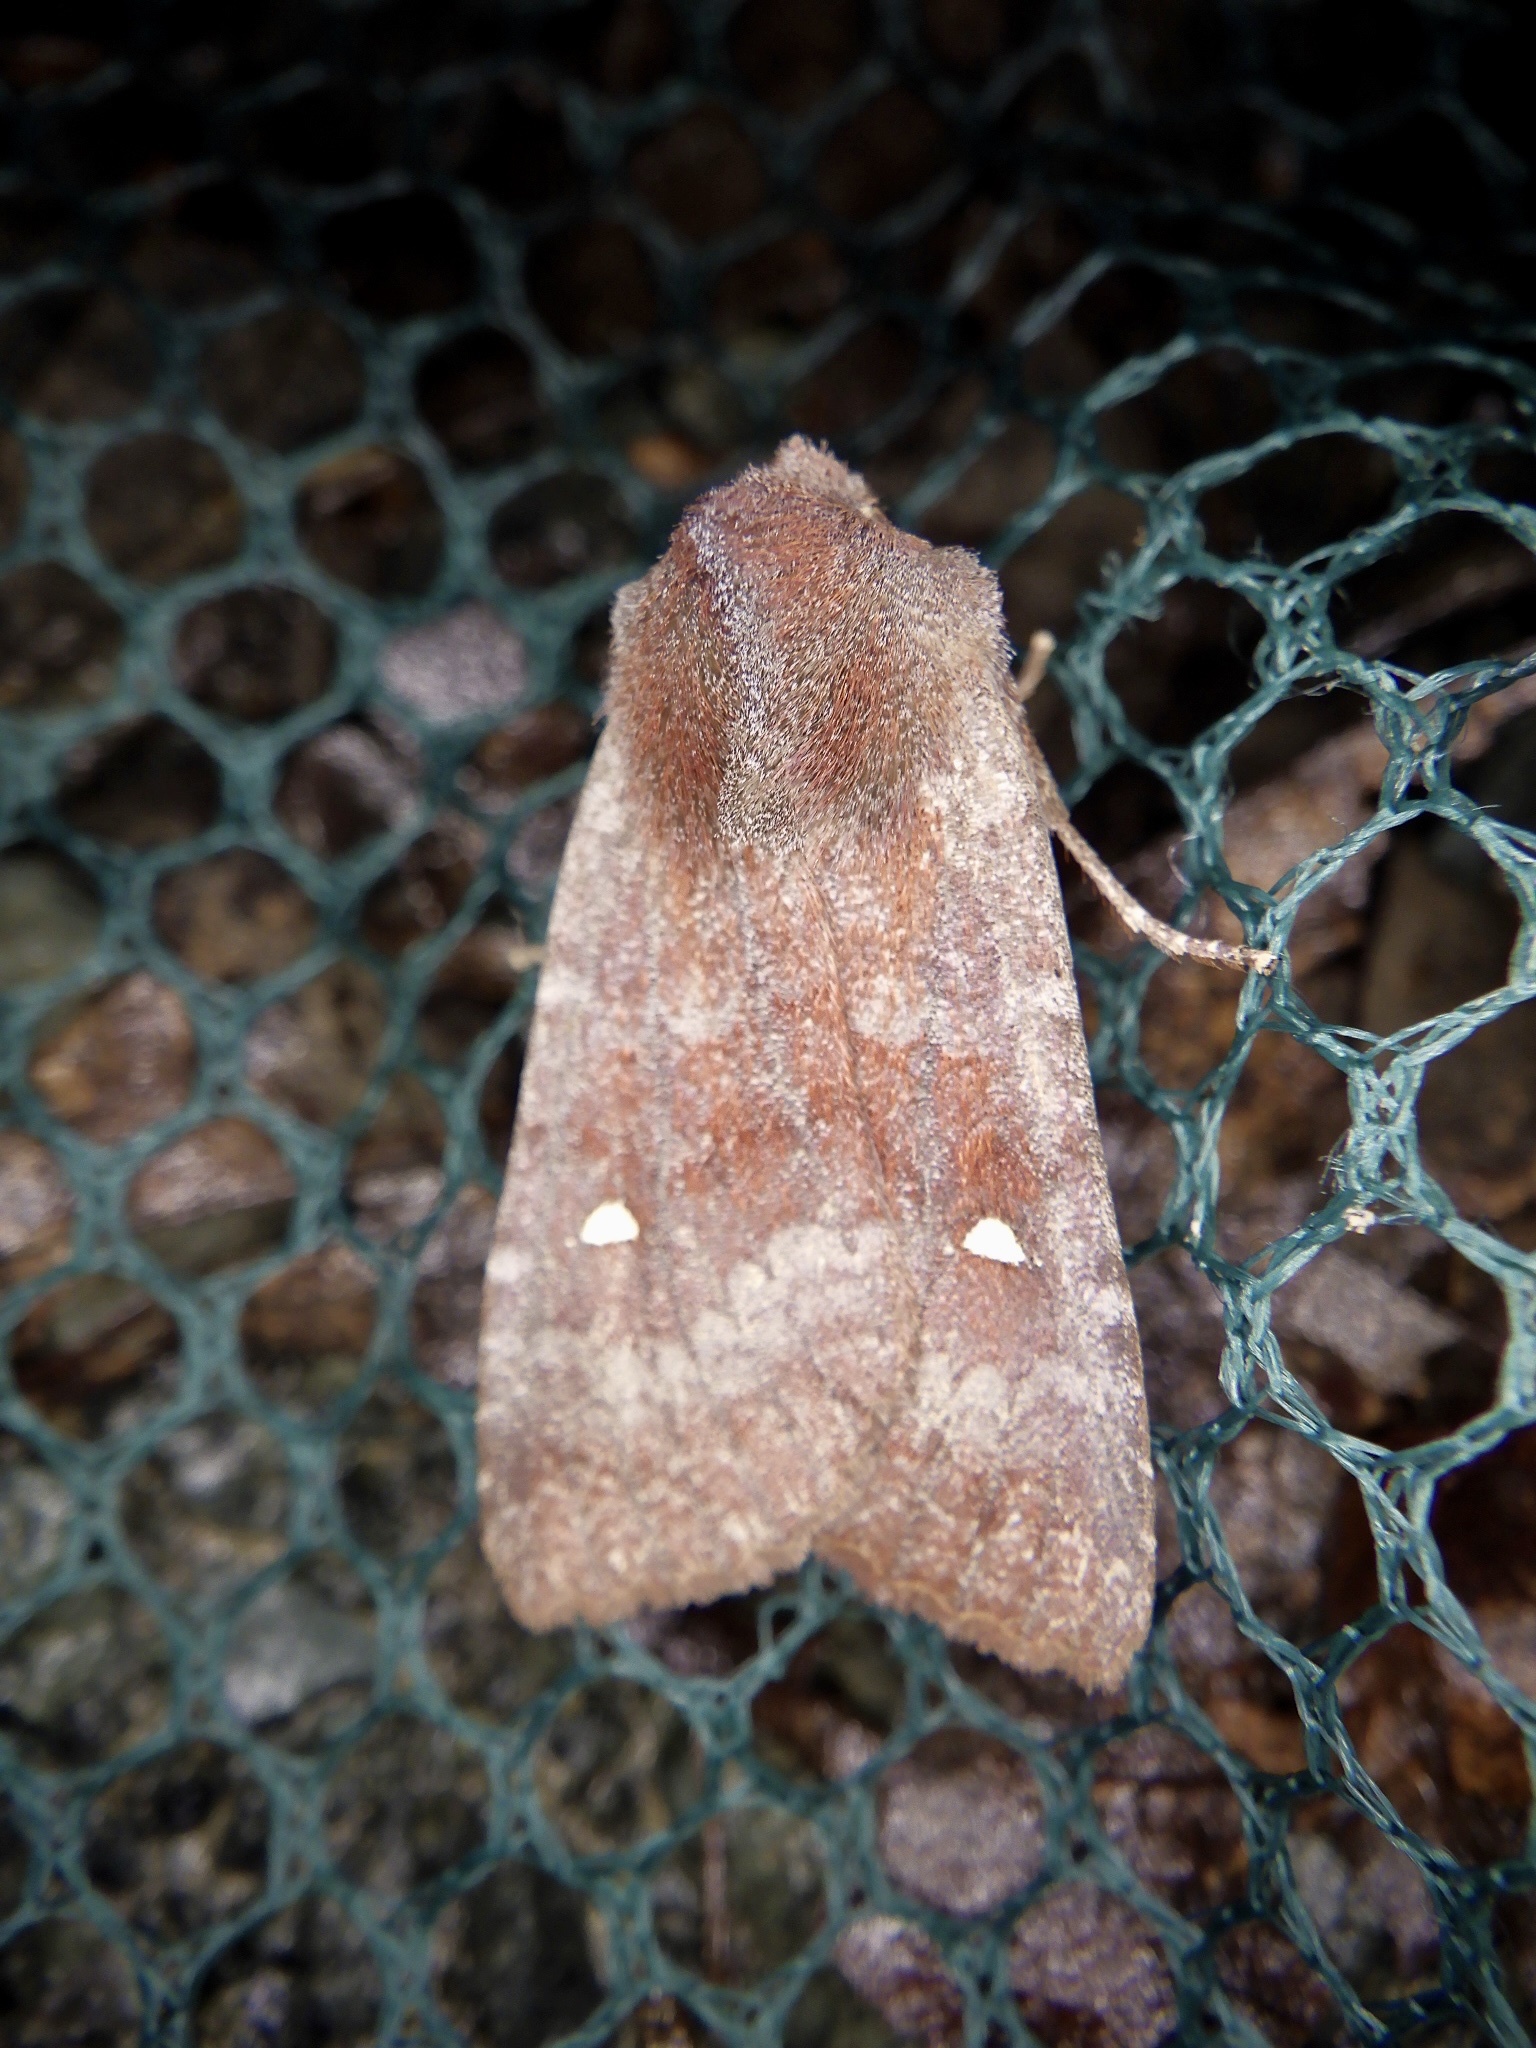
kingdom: Animalia
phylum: Arthropoda
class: Insecta
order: Lepidoptera
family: Noctuidae
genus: Eupsilia
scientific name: Eupsilia unipuncta
